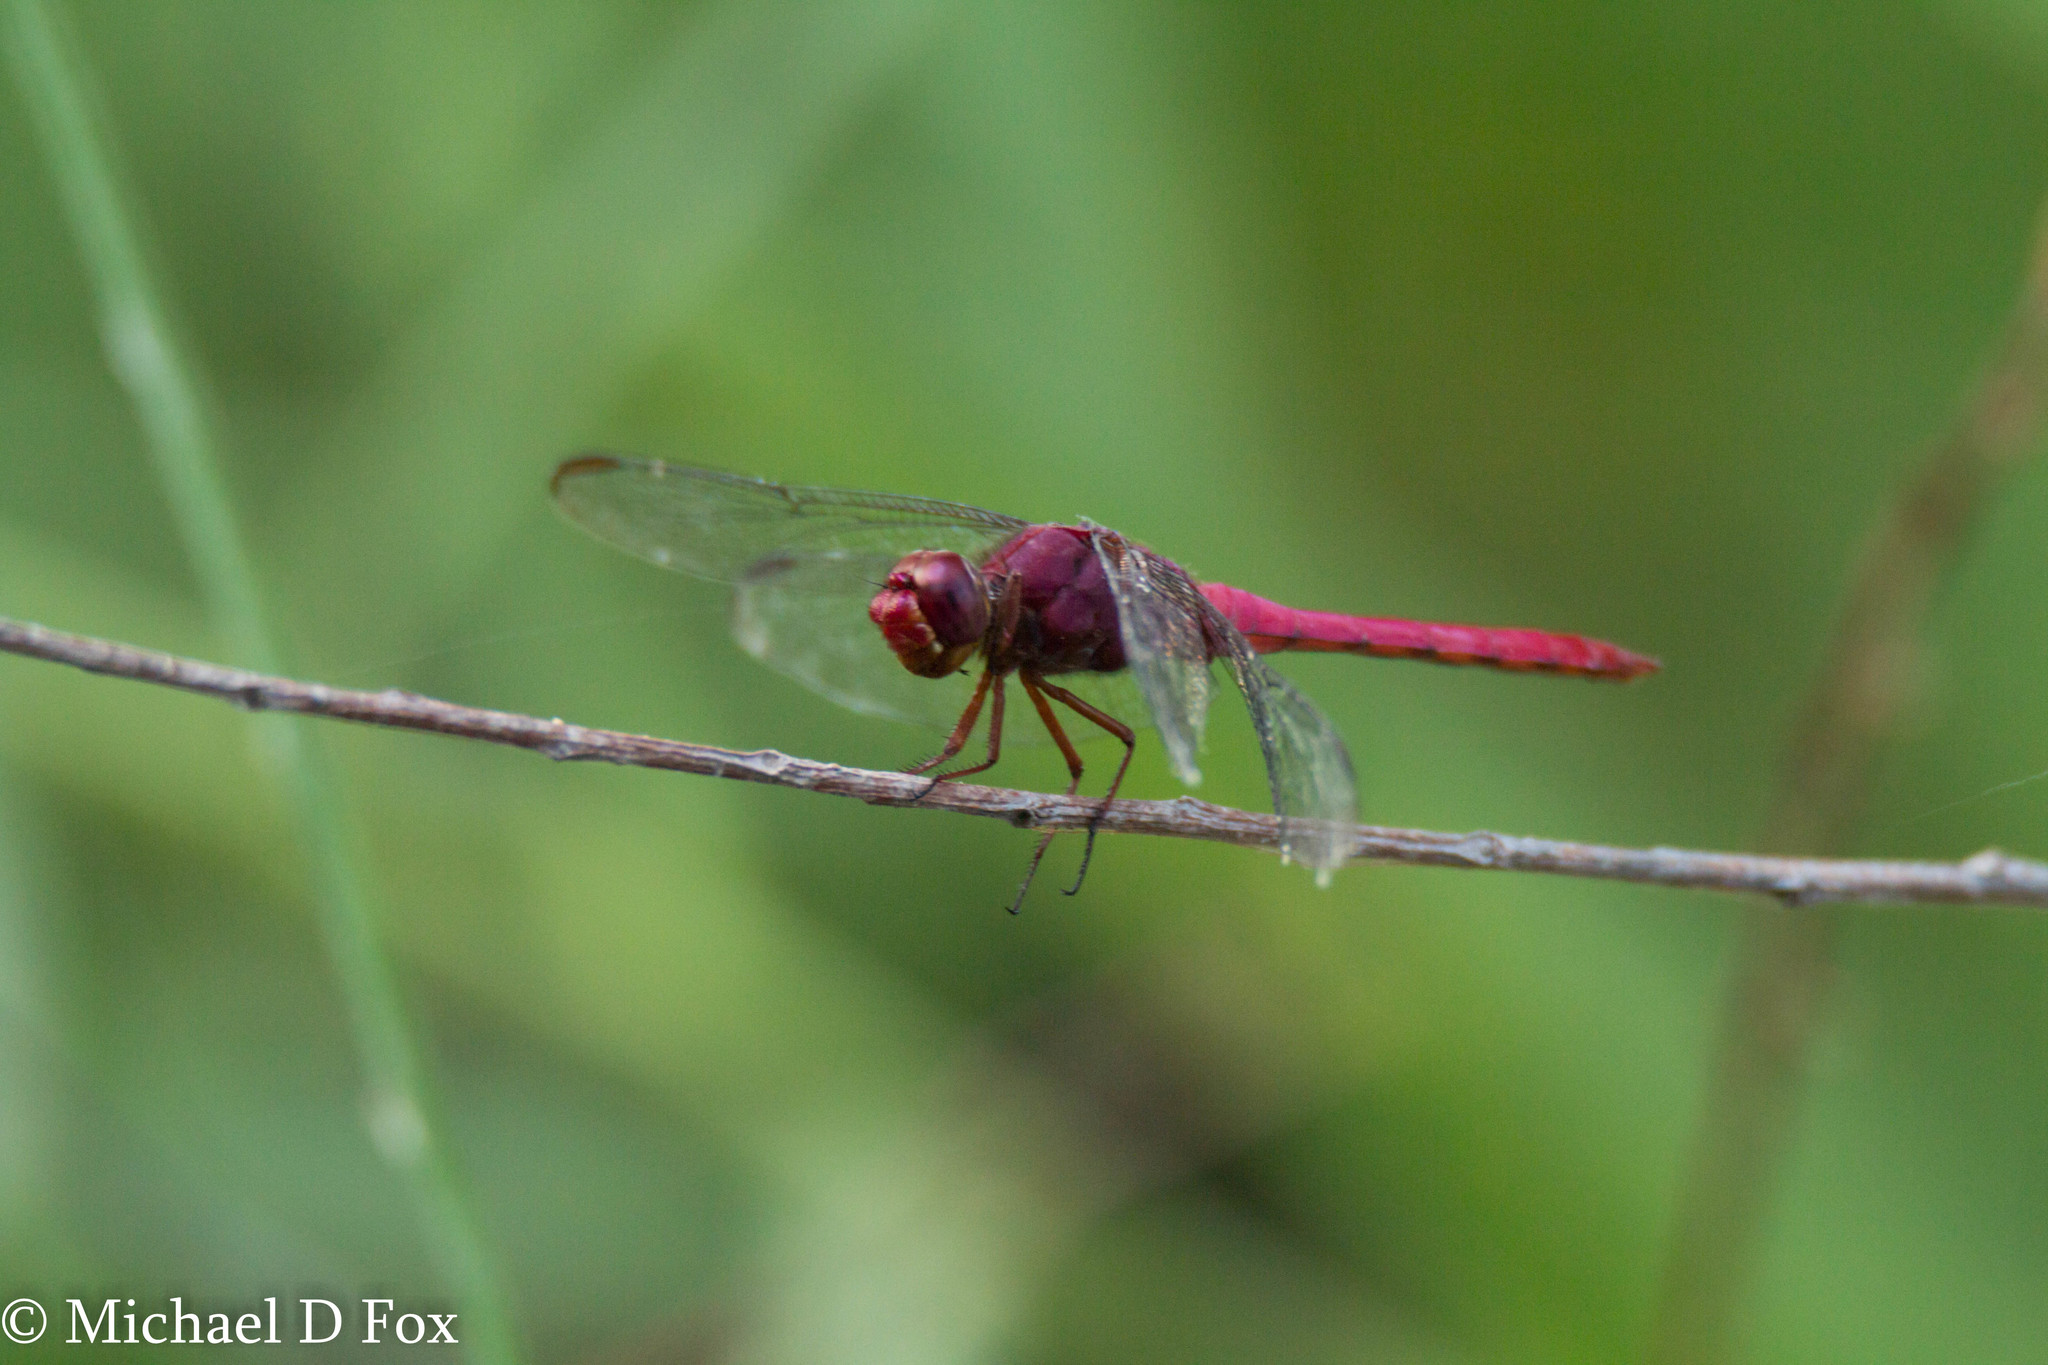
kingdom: Animalia
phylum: Arthropoda
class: Insecta
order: Odonata
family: Libellulidae
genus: Orthemis
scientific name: Orthemis discolor
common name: Carmine skimmer
